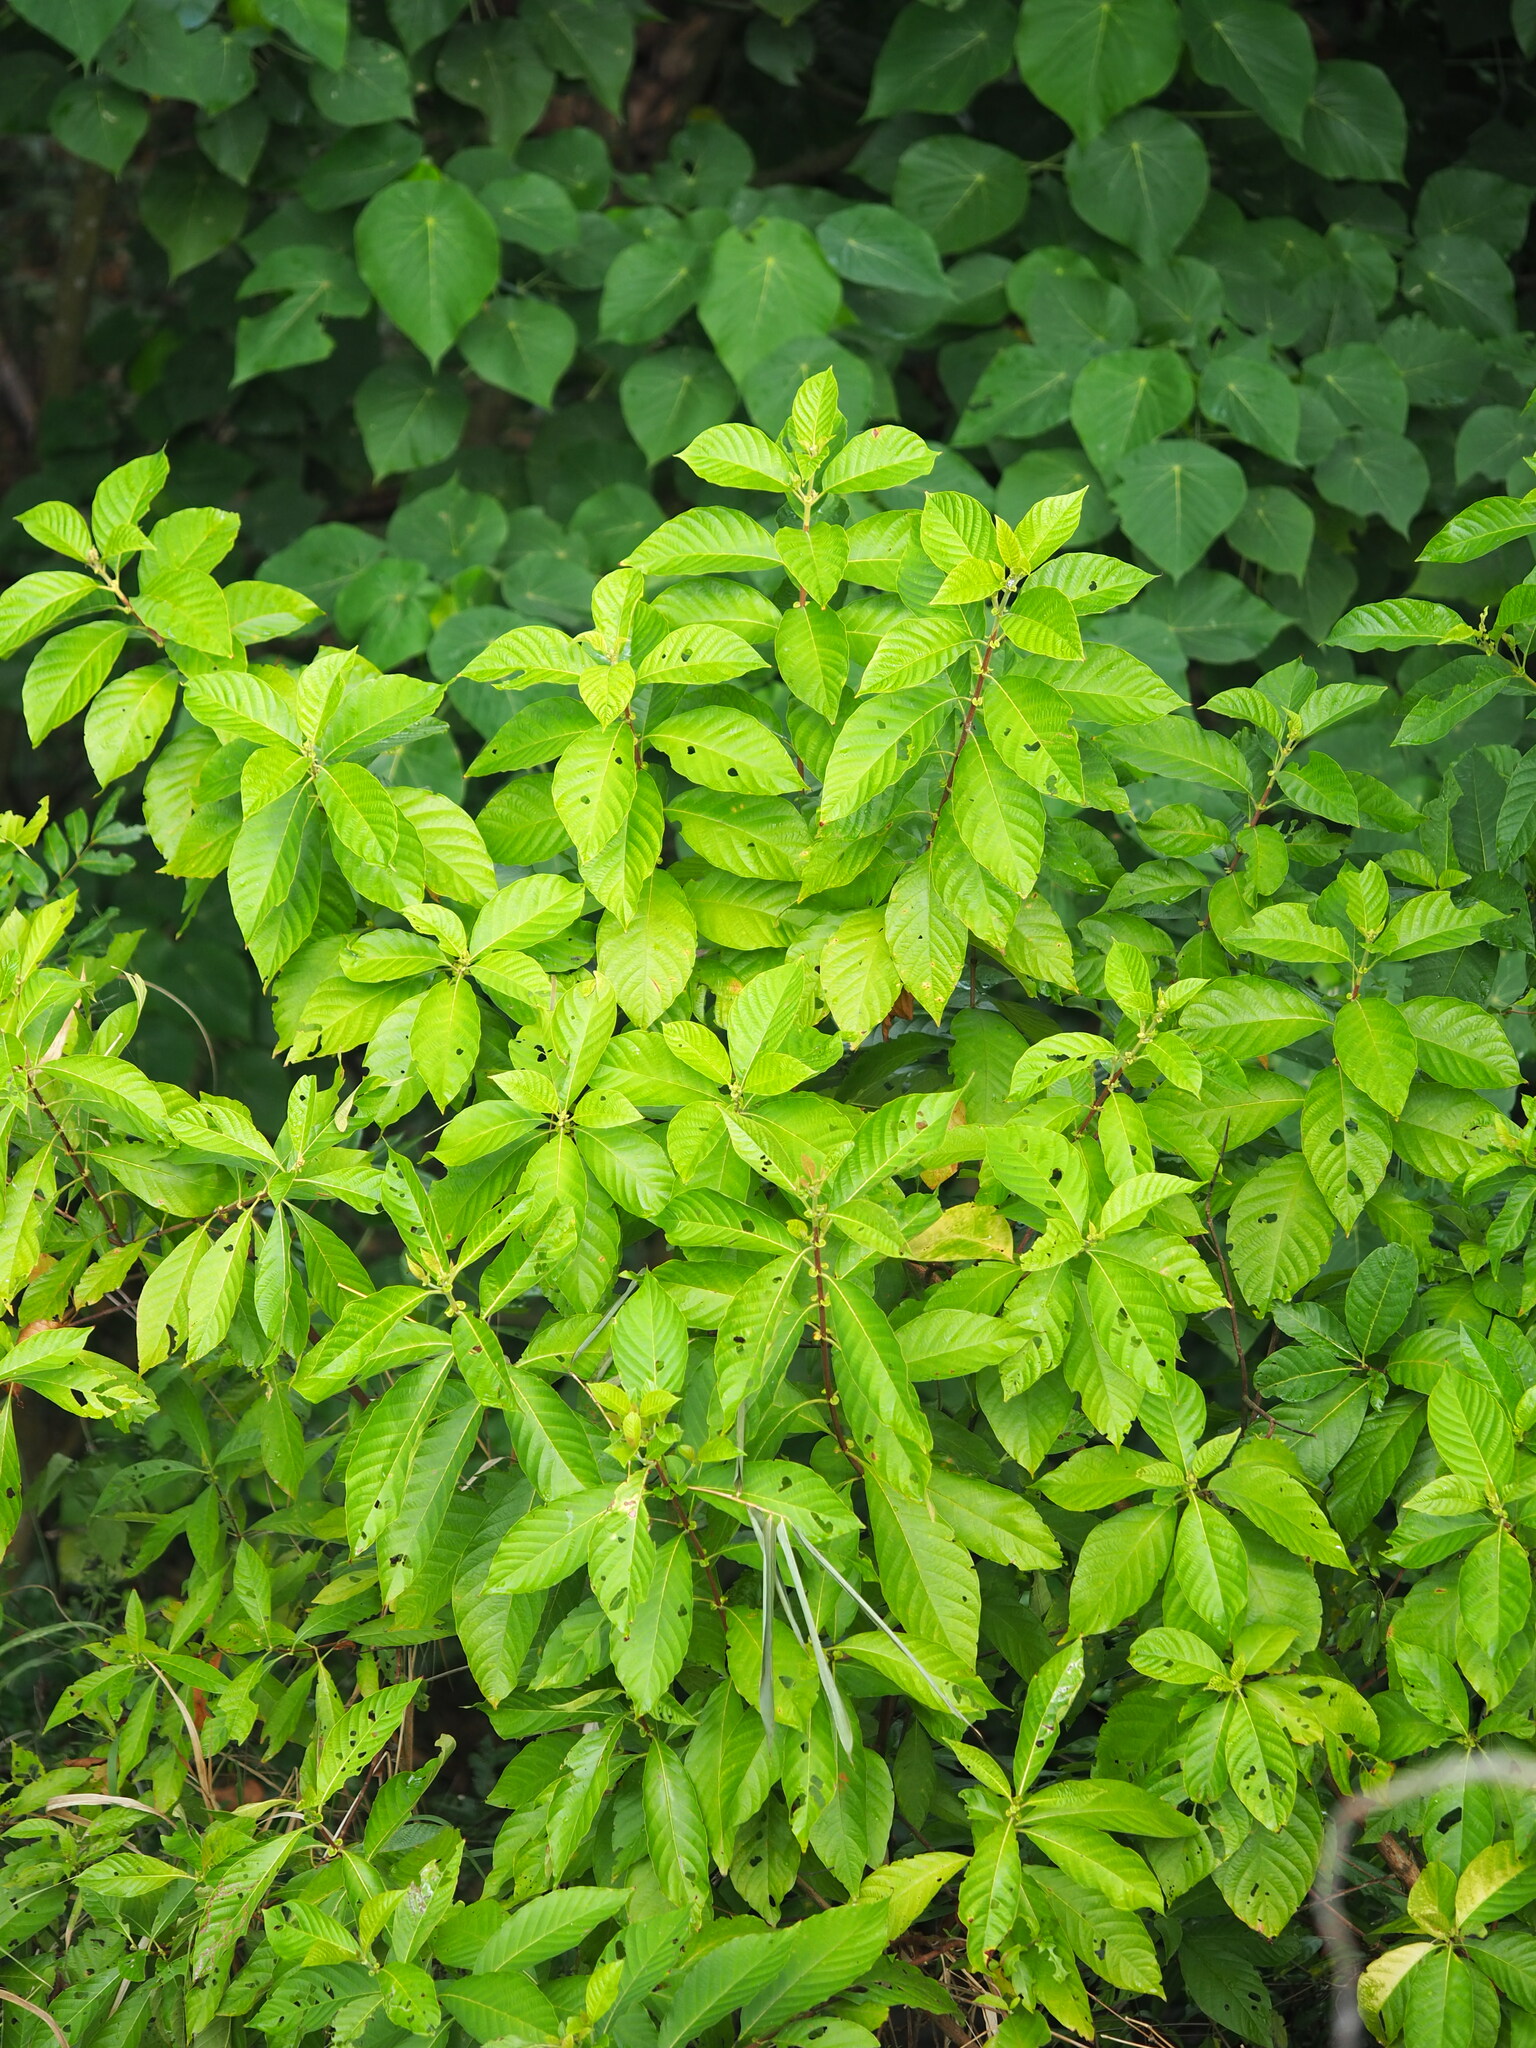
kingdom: Plantae
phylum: Tracheophyta
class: Magnoliopsida
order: Gentianales
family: Rubiaceae
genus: Wendlandia
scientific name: Wendlandia uvariifolia
